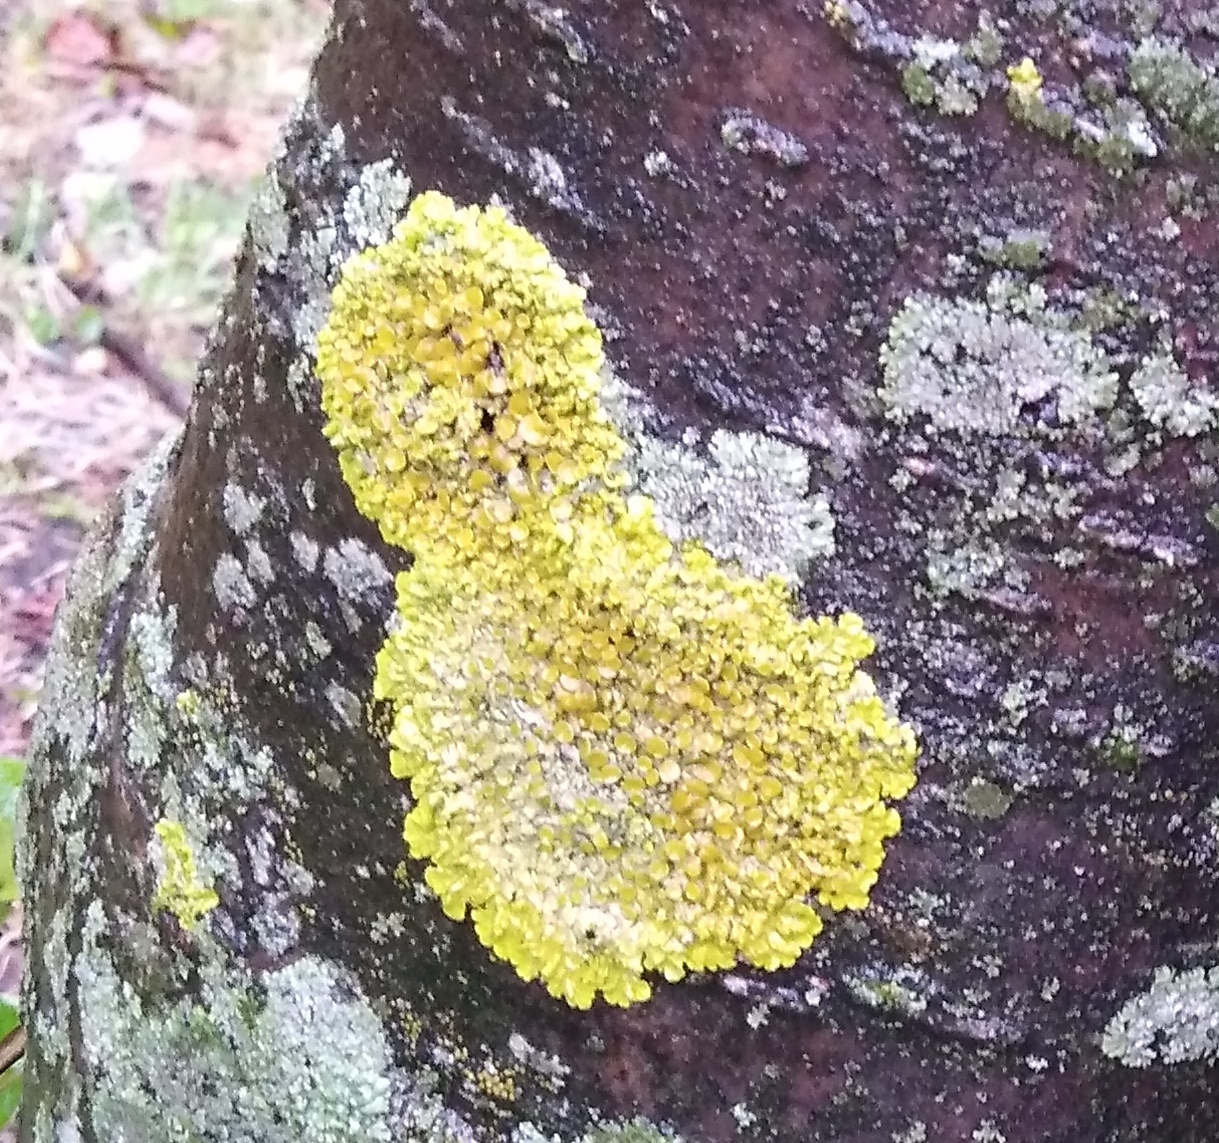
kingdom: Fungi
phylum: Ascomycota
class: Lecanoromycetes
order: Teloschistales
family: Teloschistaceae
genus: Xanthoria
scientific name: Xanthoria parietina
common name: Common orange lichen
